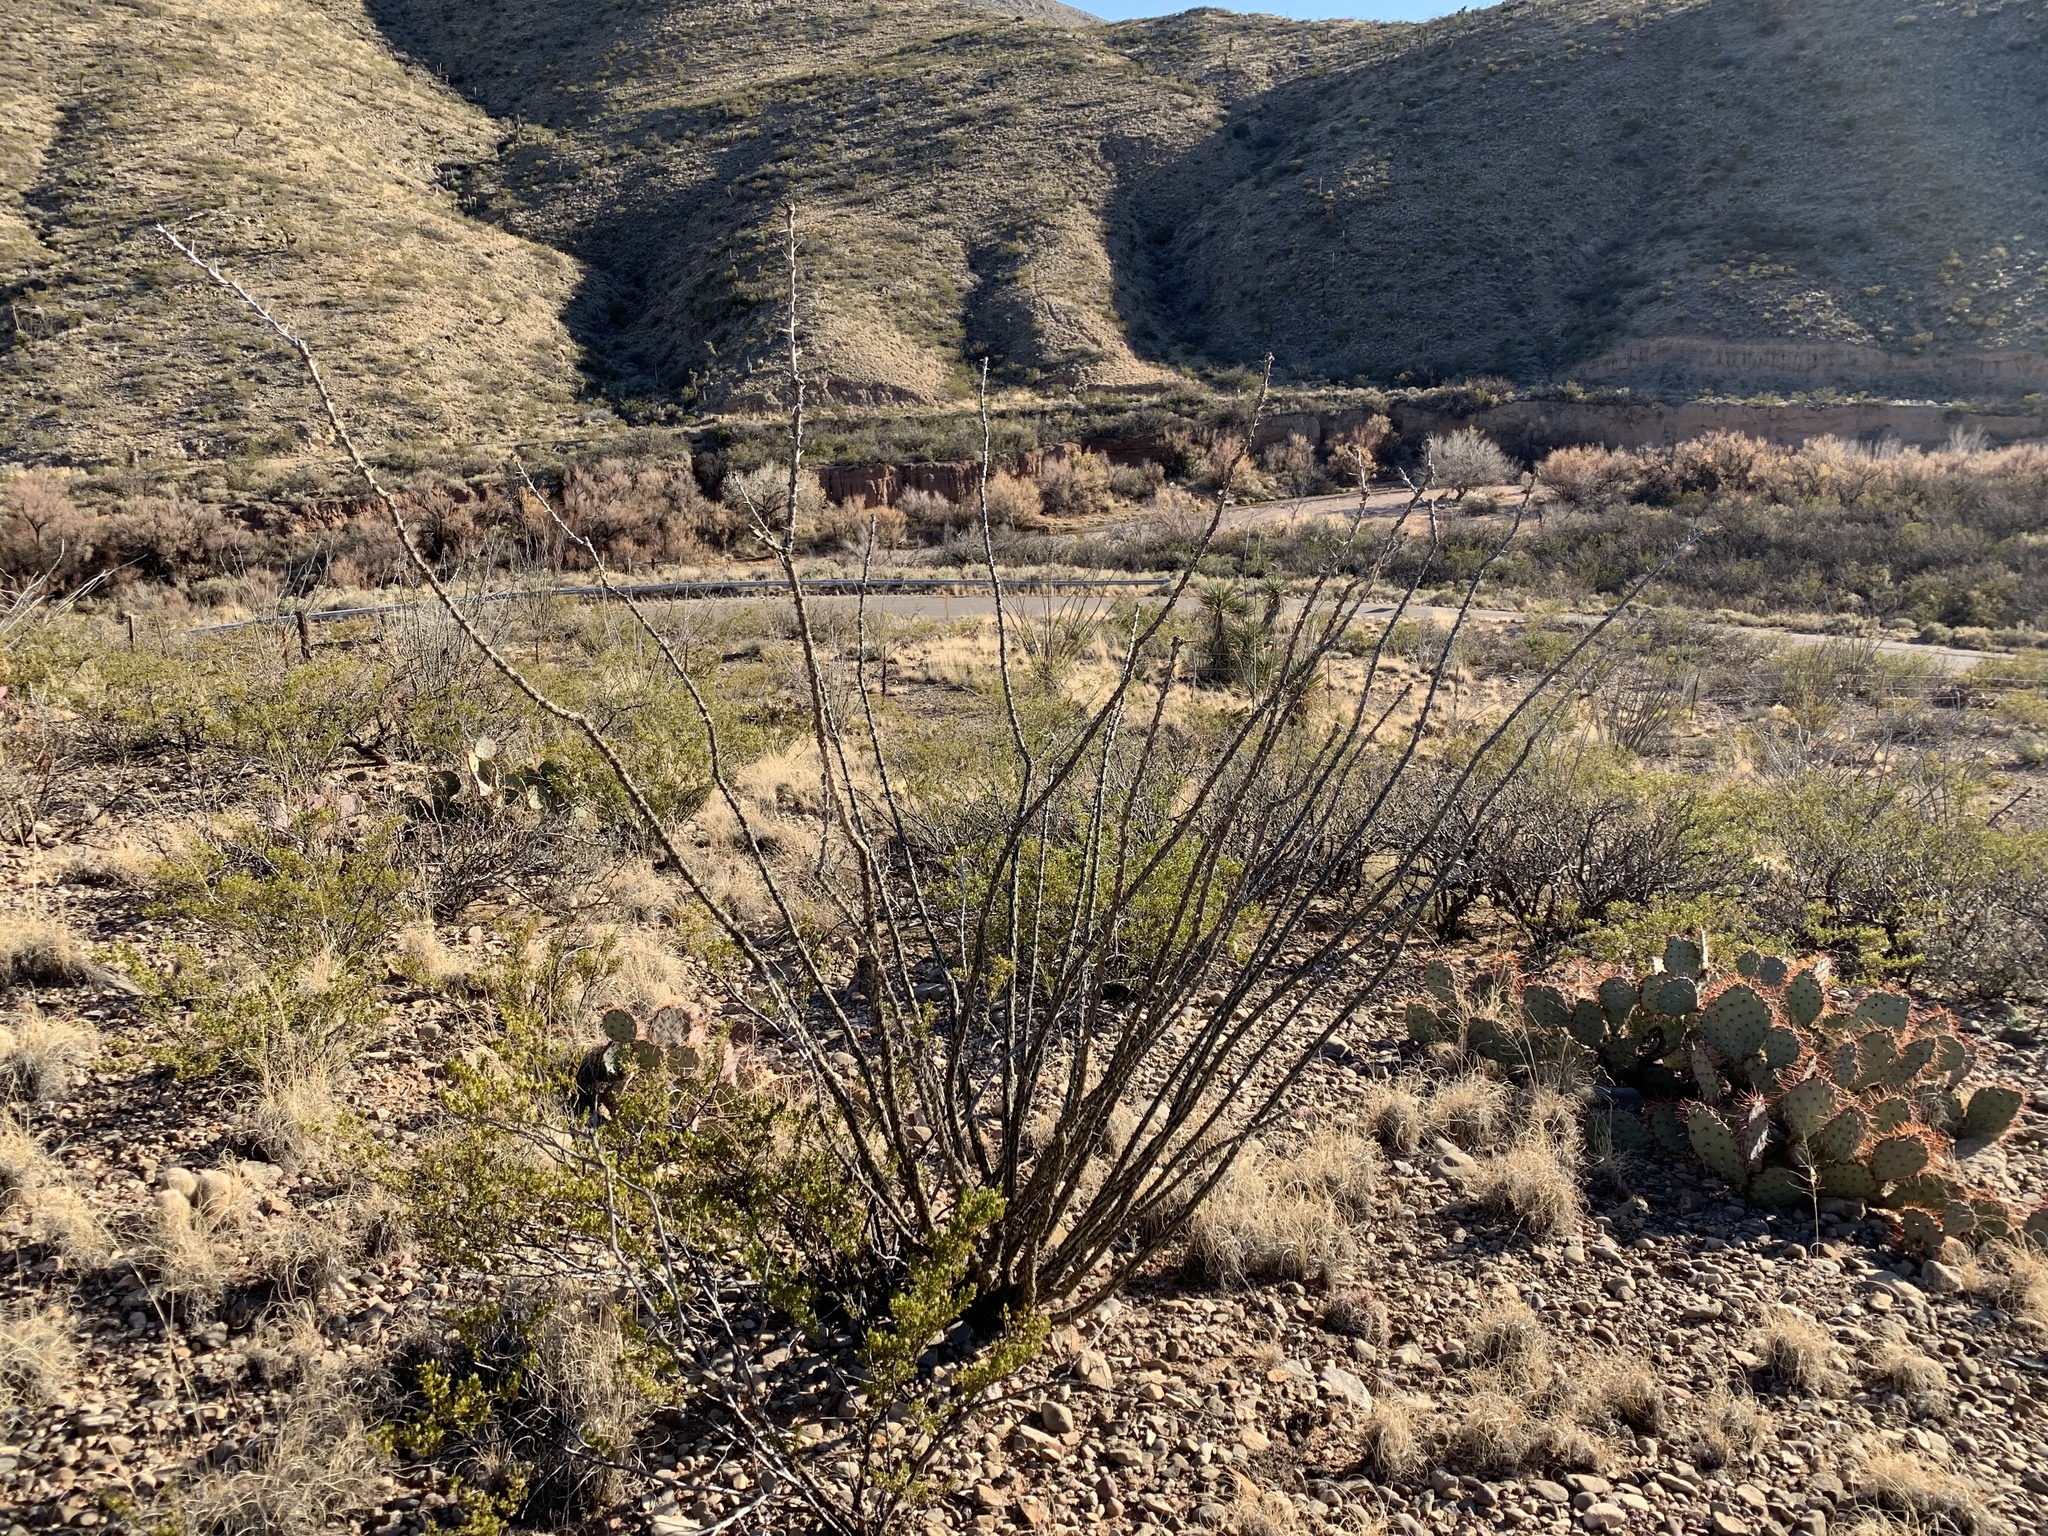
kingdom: Plantae
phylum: Tracheophyta
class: Magnoliopsida
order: Ericales
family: Fouquieriaceae
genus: Fouquieria
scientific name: Fouquieria splendens
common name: Vine-cactus
